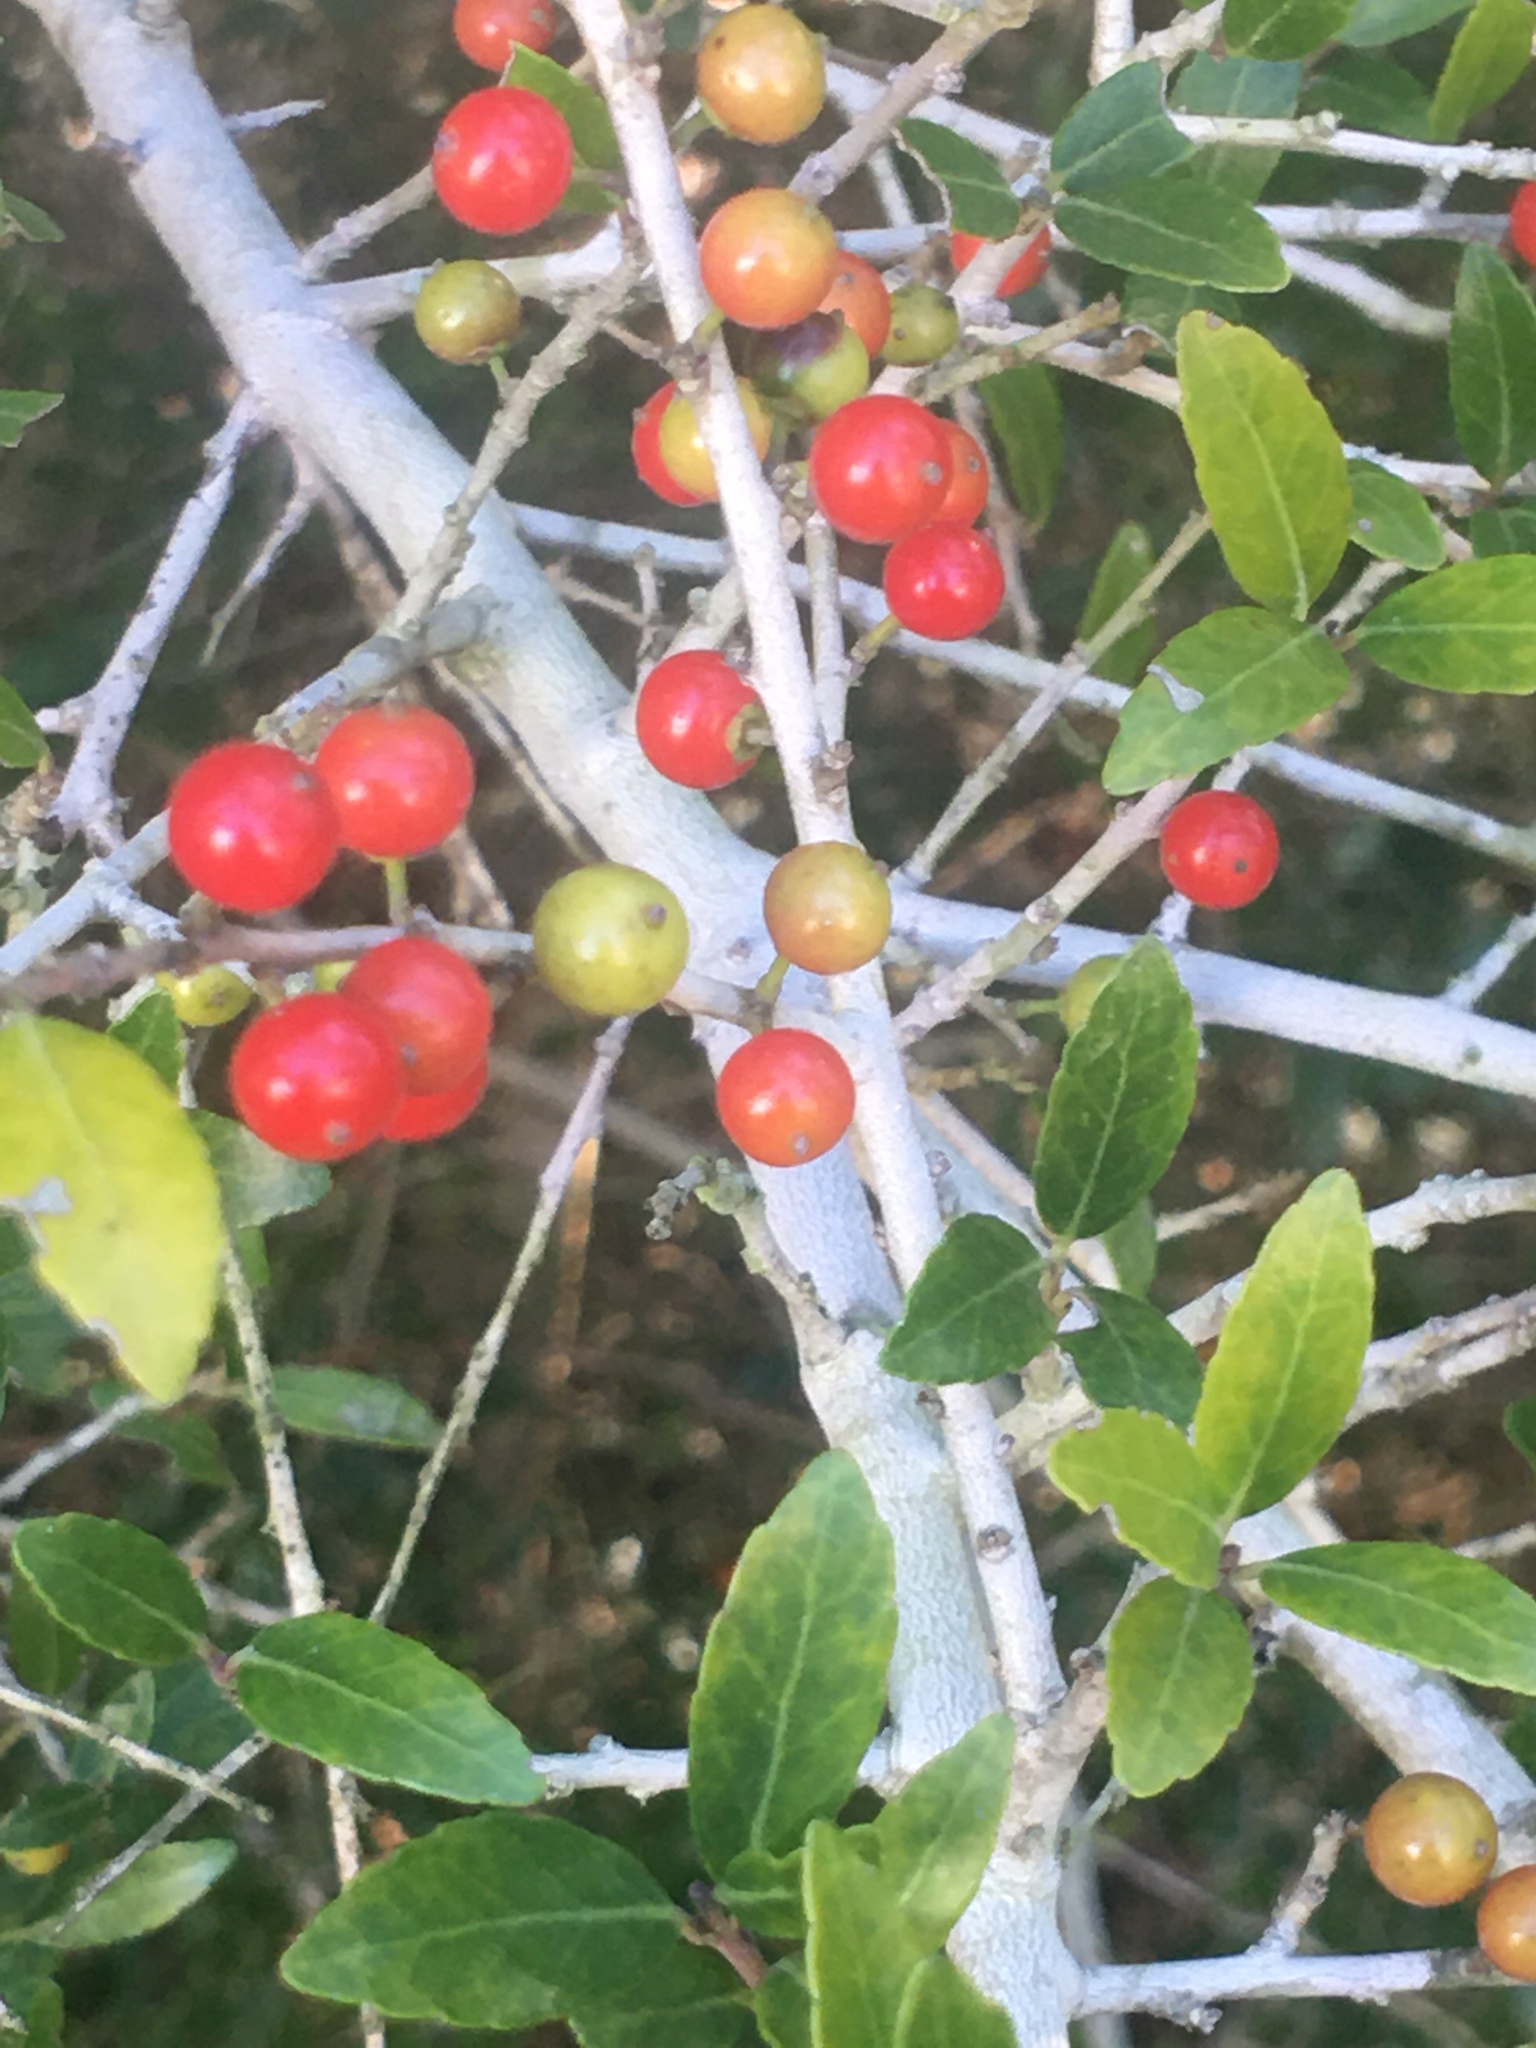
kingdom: Plantae
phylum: Tracheophyta
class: Magnoliopsida
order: Aquifoliales
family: Aquifoliaceae
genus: Ilex
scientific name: Ilex vomitoria
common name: Yaupon holly
